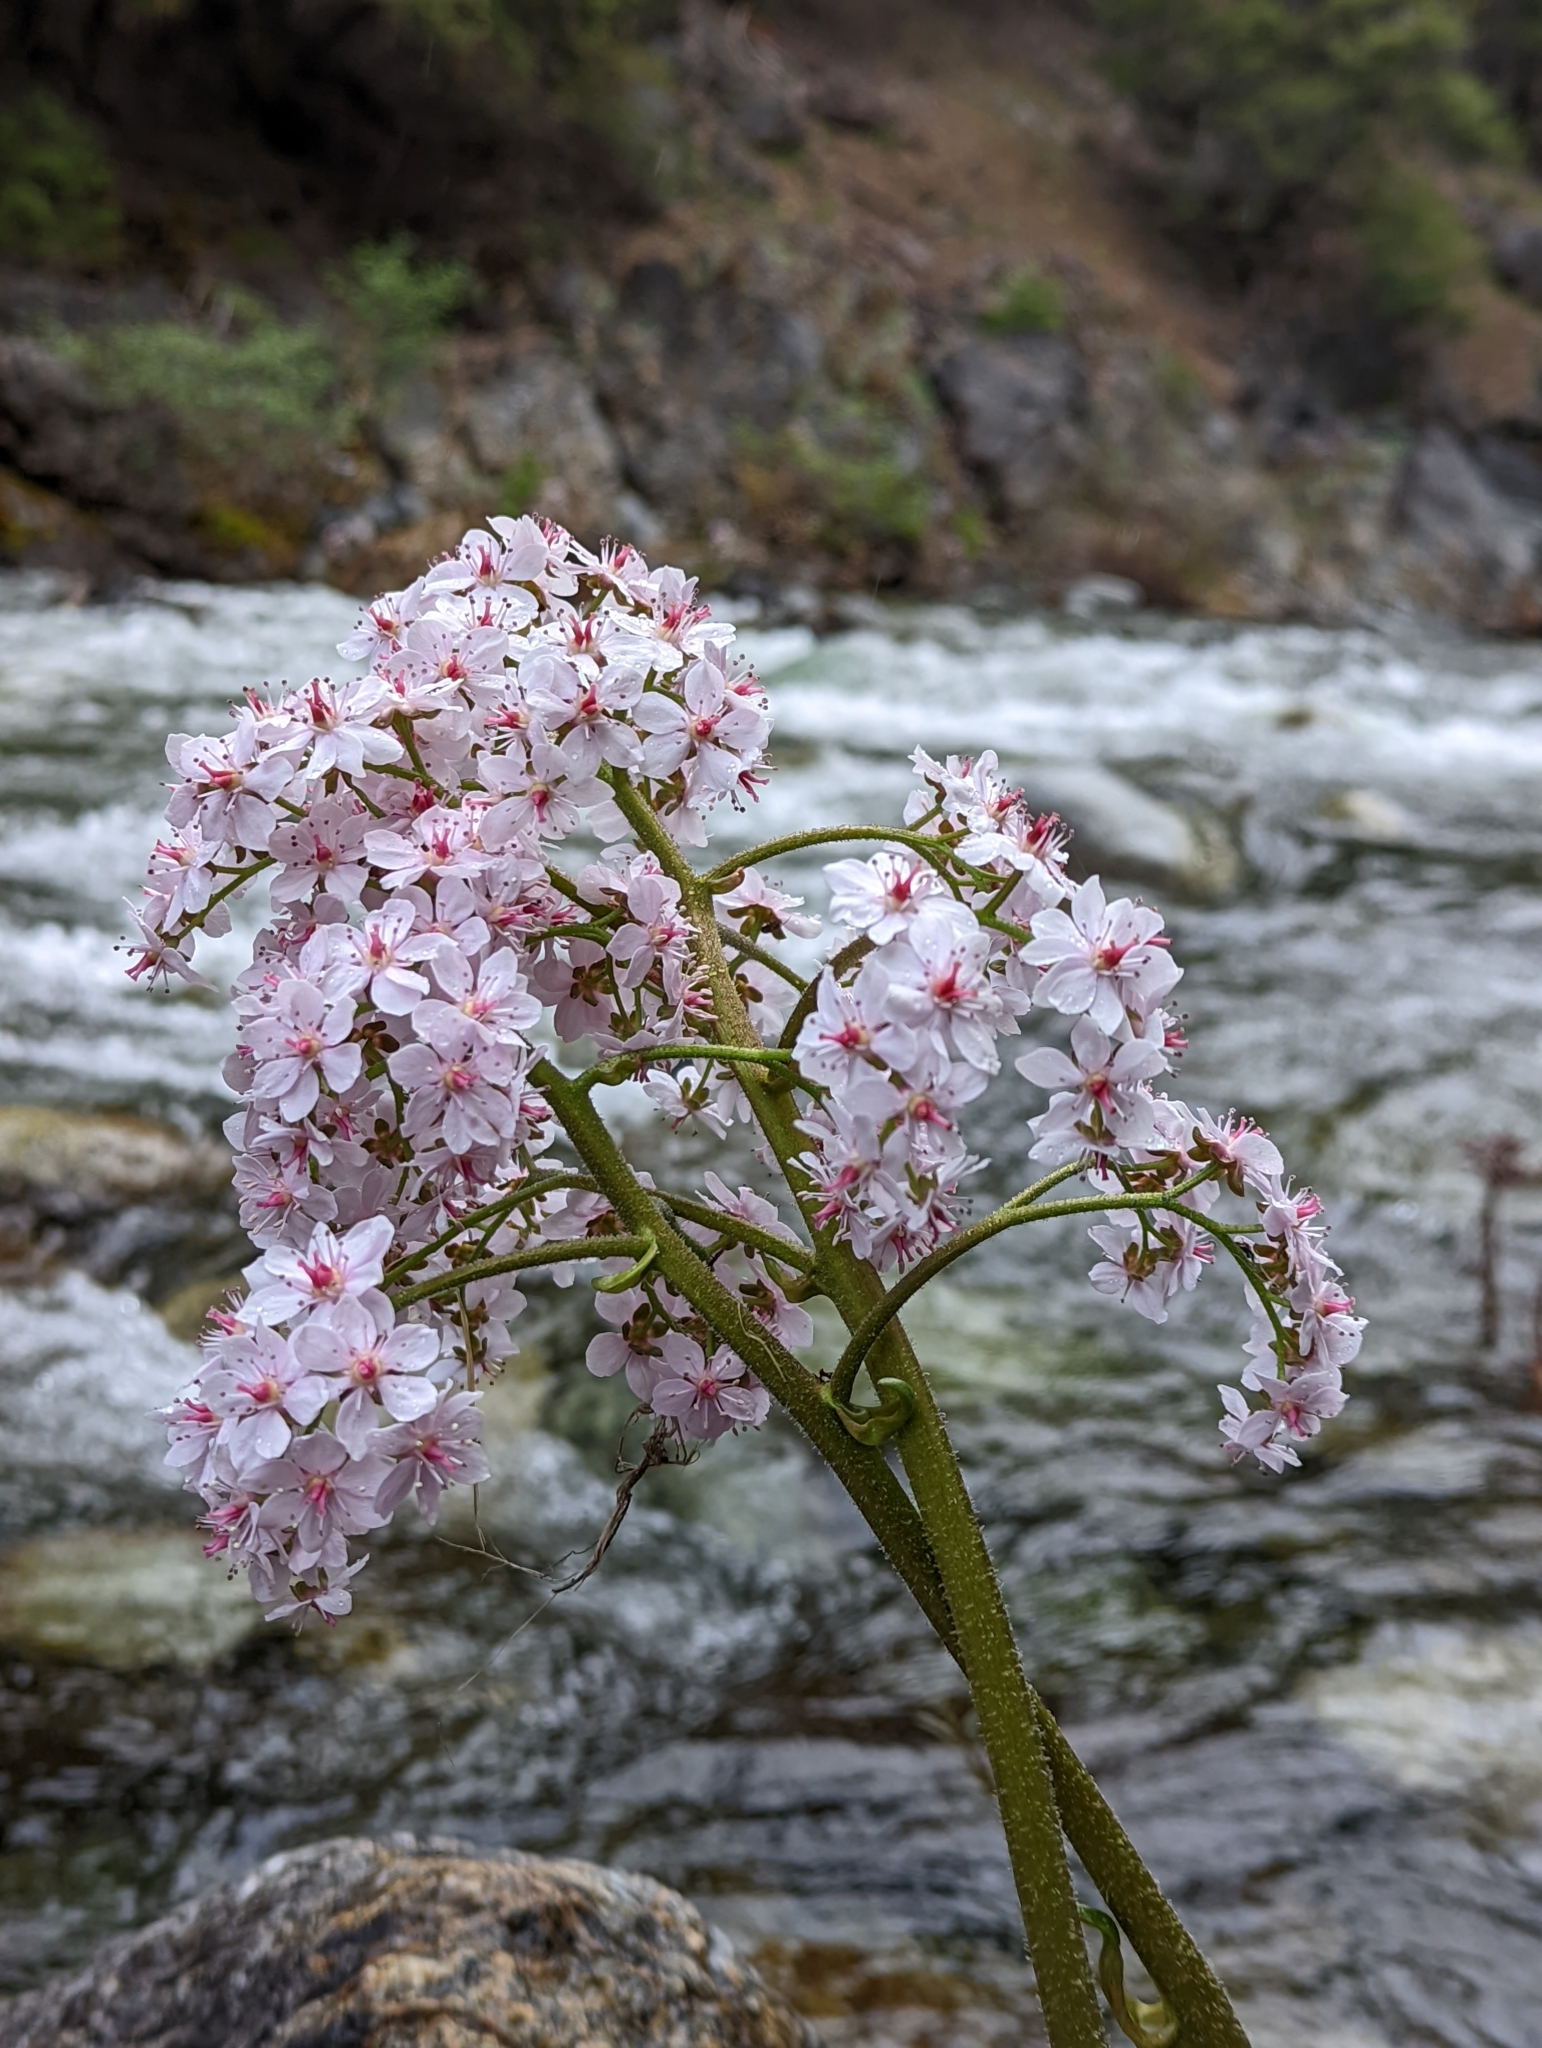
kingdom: Plantae
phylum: Tracheophyta
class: Magnoliopsida
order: Saxifragales
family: Saxifragaceae
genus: Darmera
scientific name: Darmera peltata
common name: Indian-rhubarb
